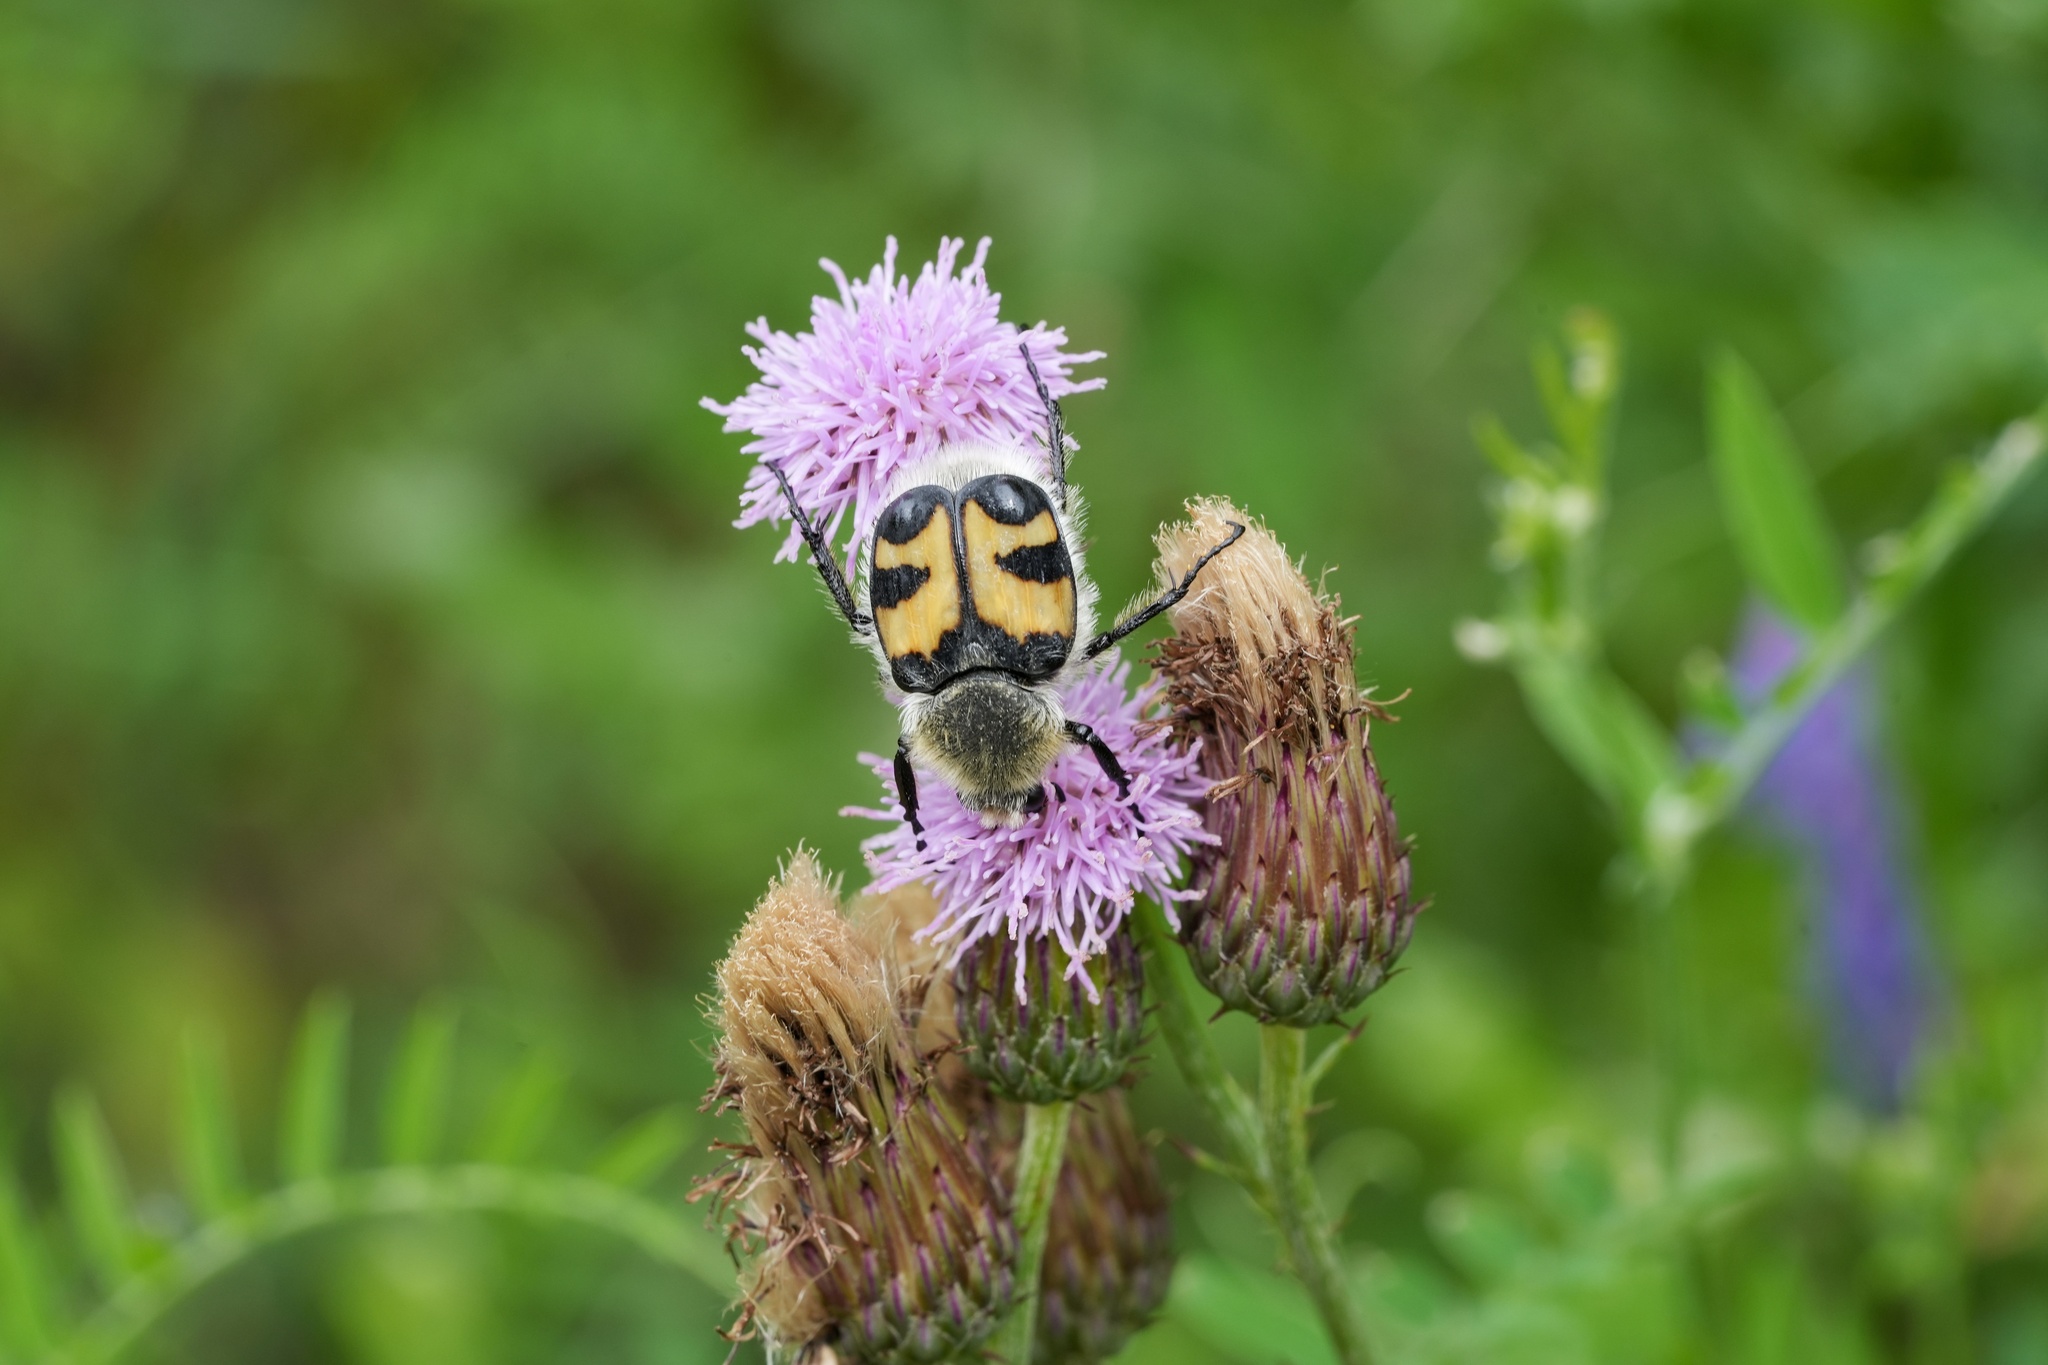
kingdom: Animalia
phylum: Arthropoda
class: Insecta
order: Coleoptera
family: Scarabaeidae
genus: Trichius
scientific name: Trichius fasciatus
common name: Bee beetle
